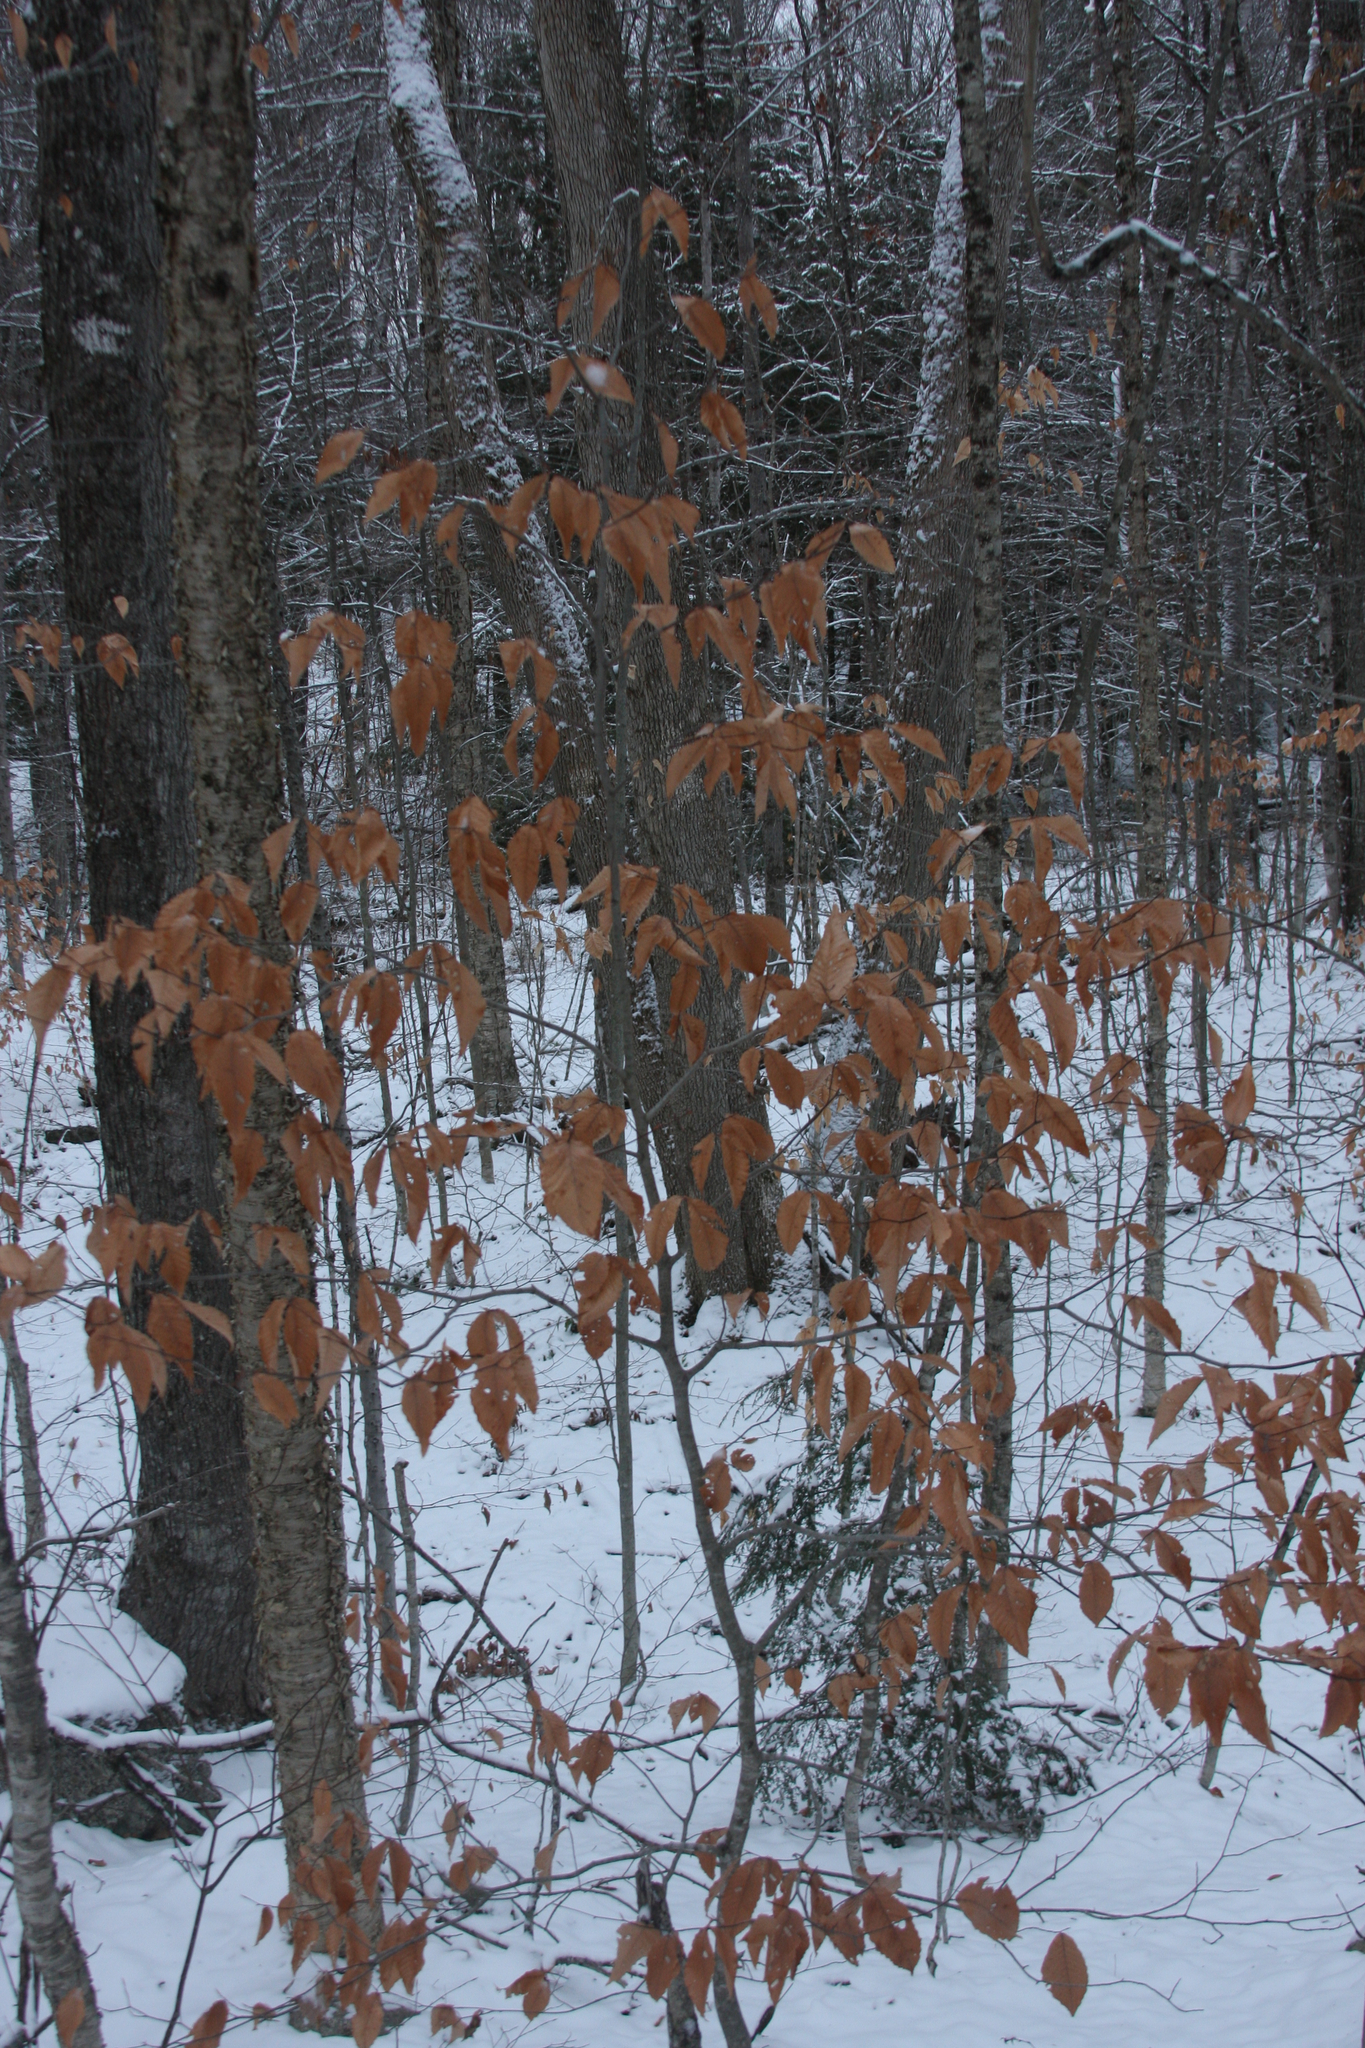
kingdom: Plantae
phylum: Tracheophyta
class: Magnoliopsida
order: Fagales
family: Fagaceae
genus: Fagus
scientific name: Fagus grandifolia
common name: American beech
